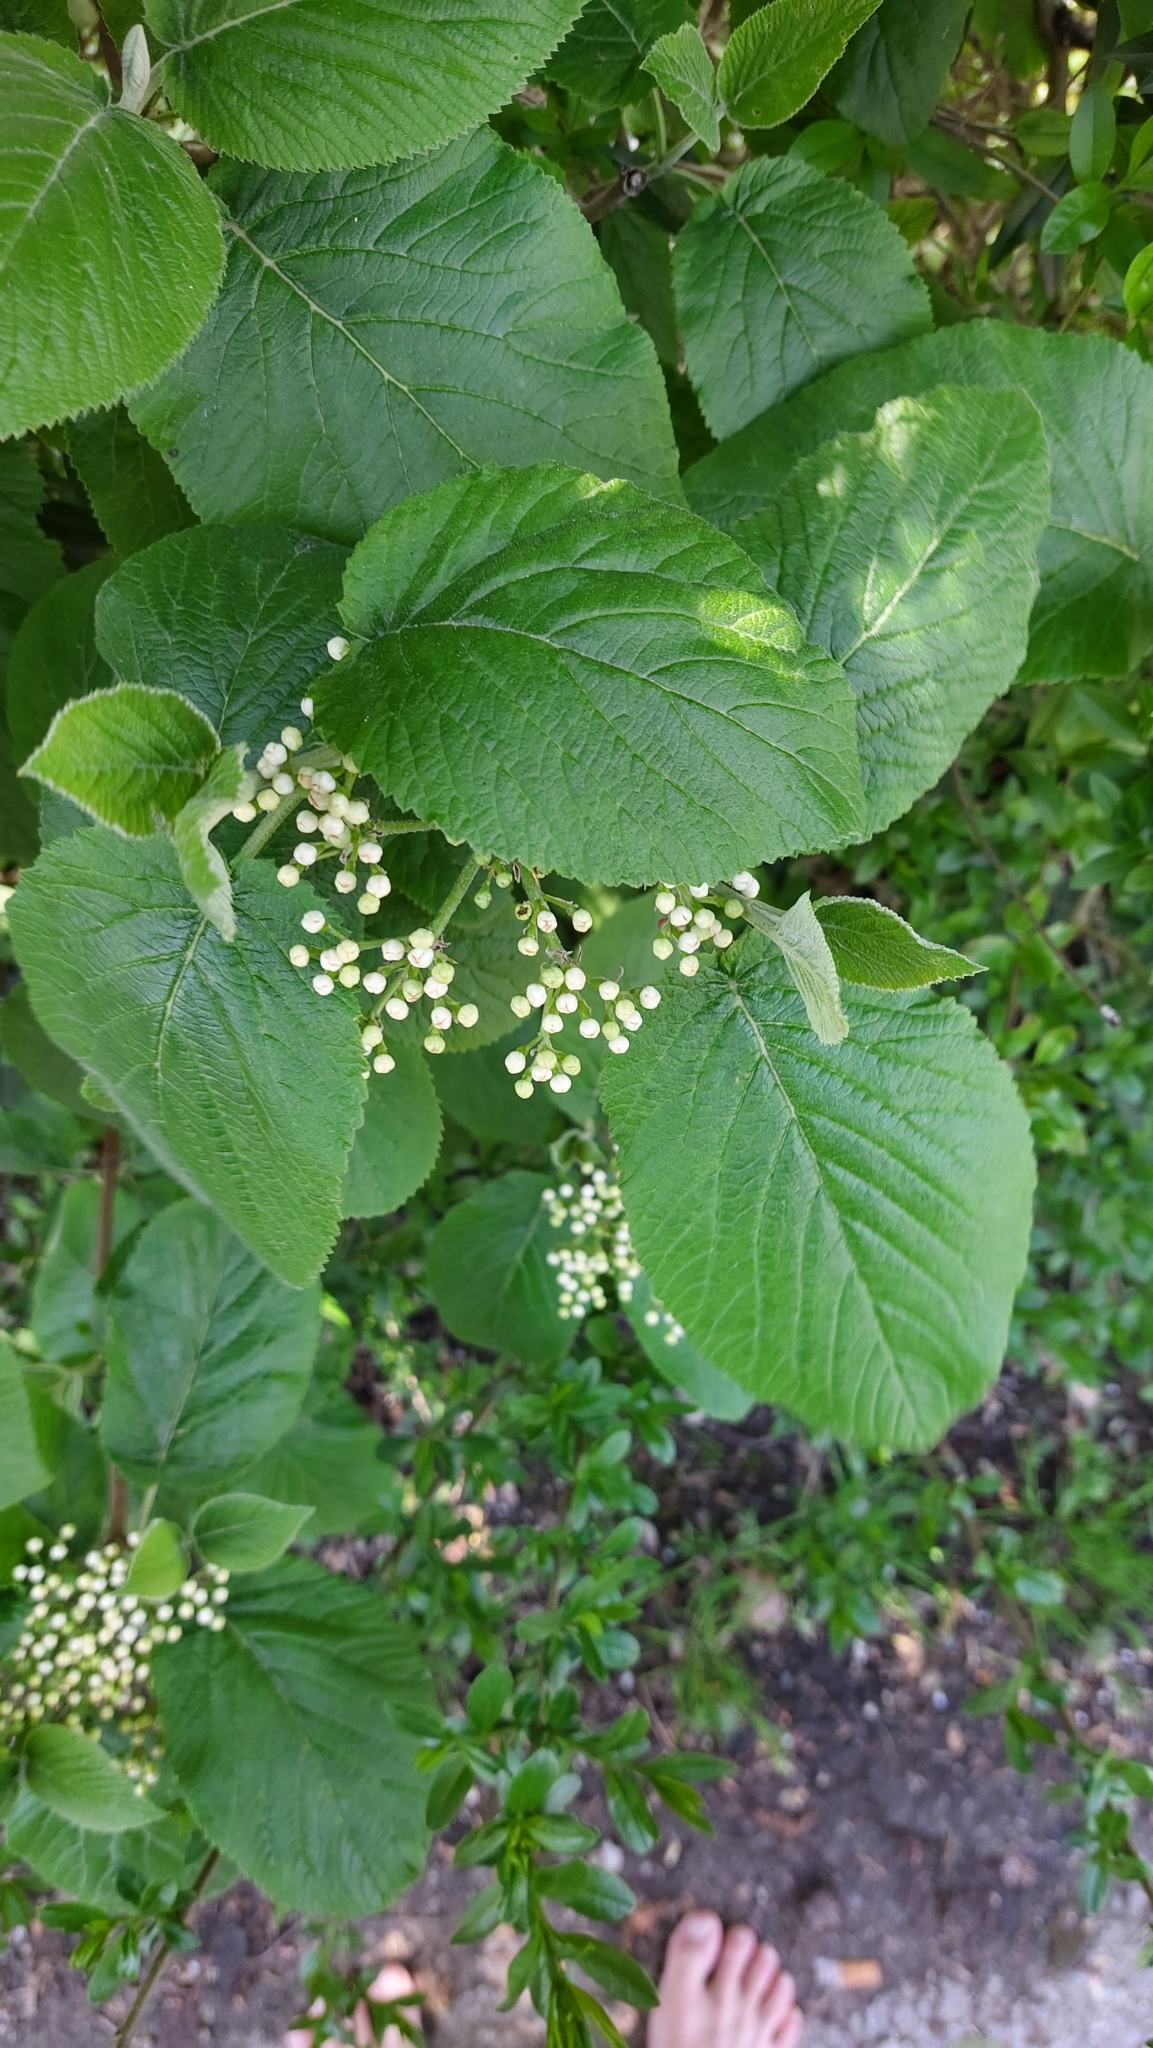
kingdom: Plantae
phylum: Tracheophyta
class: Magnoliopsida
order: Dipsacales
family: Viburnaceae
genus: Viburnum
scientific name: Viburnum lantana
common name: Wayfaring tree
